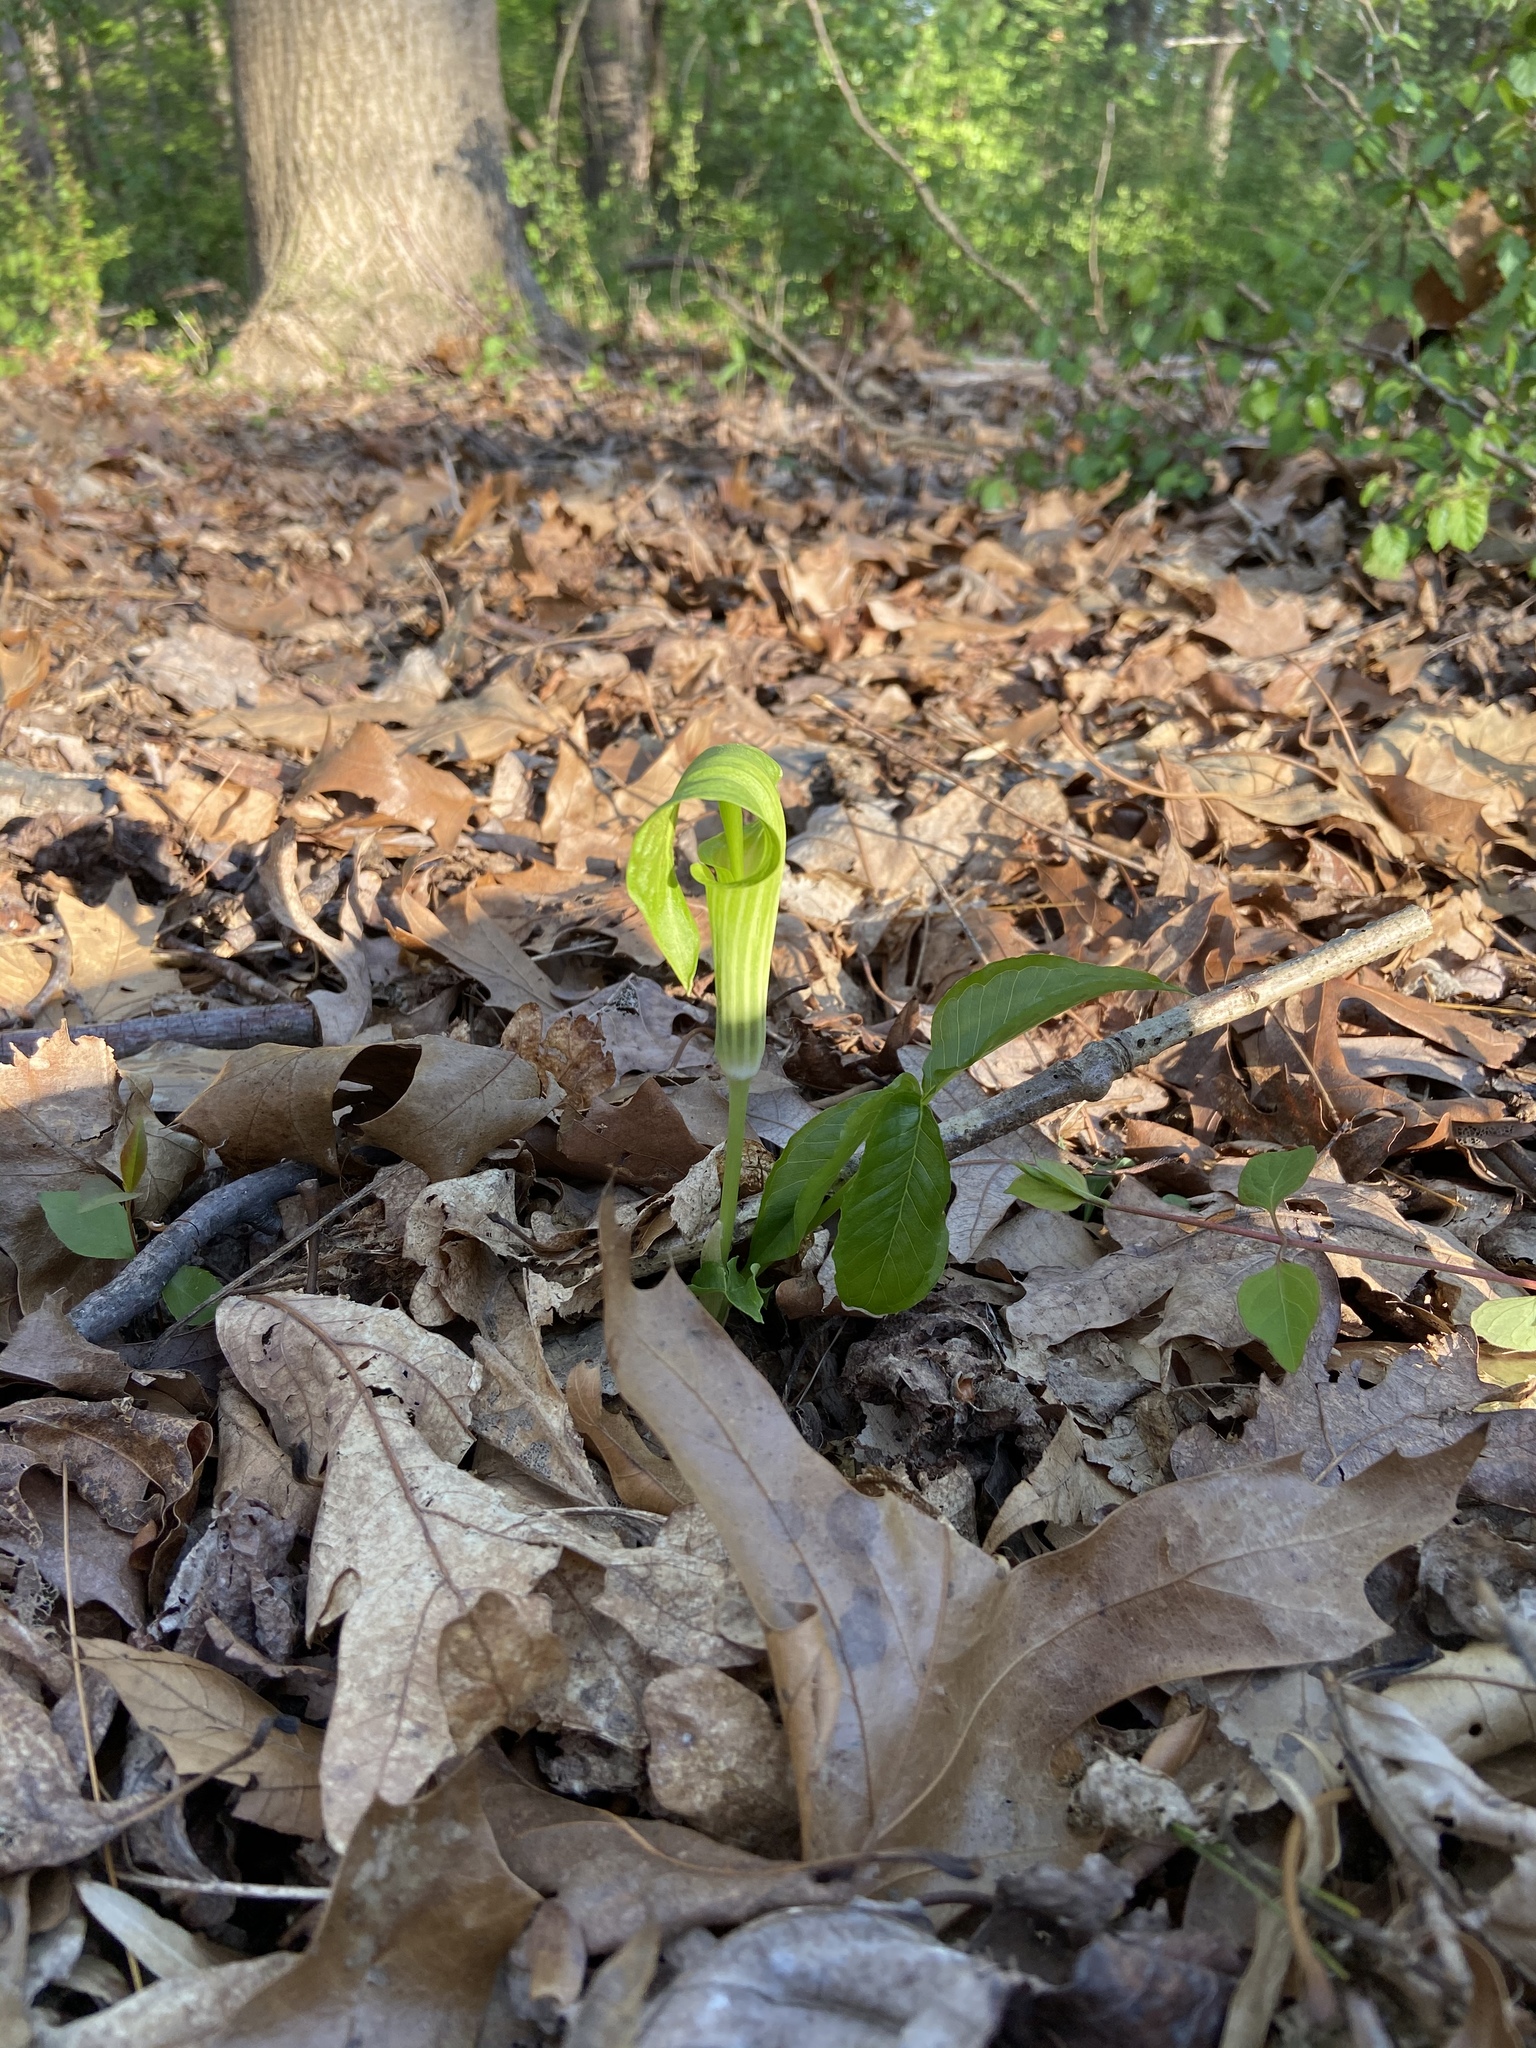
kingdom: Plantae
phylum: Tracheophyta
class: Liliopsida
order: Alismatales
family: Araceae
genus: Arisaema
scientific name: Arisaema triphyllum
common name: Jack-in-the-pulpit
